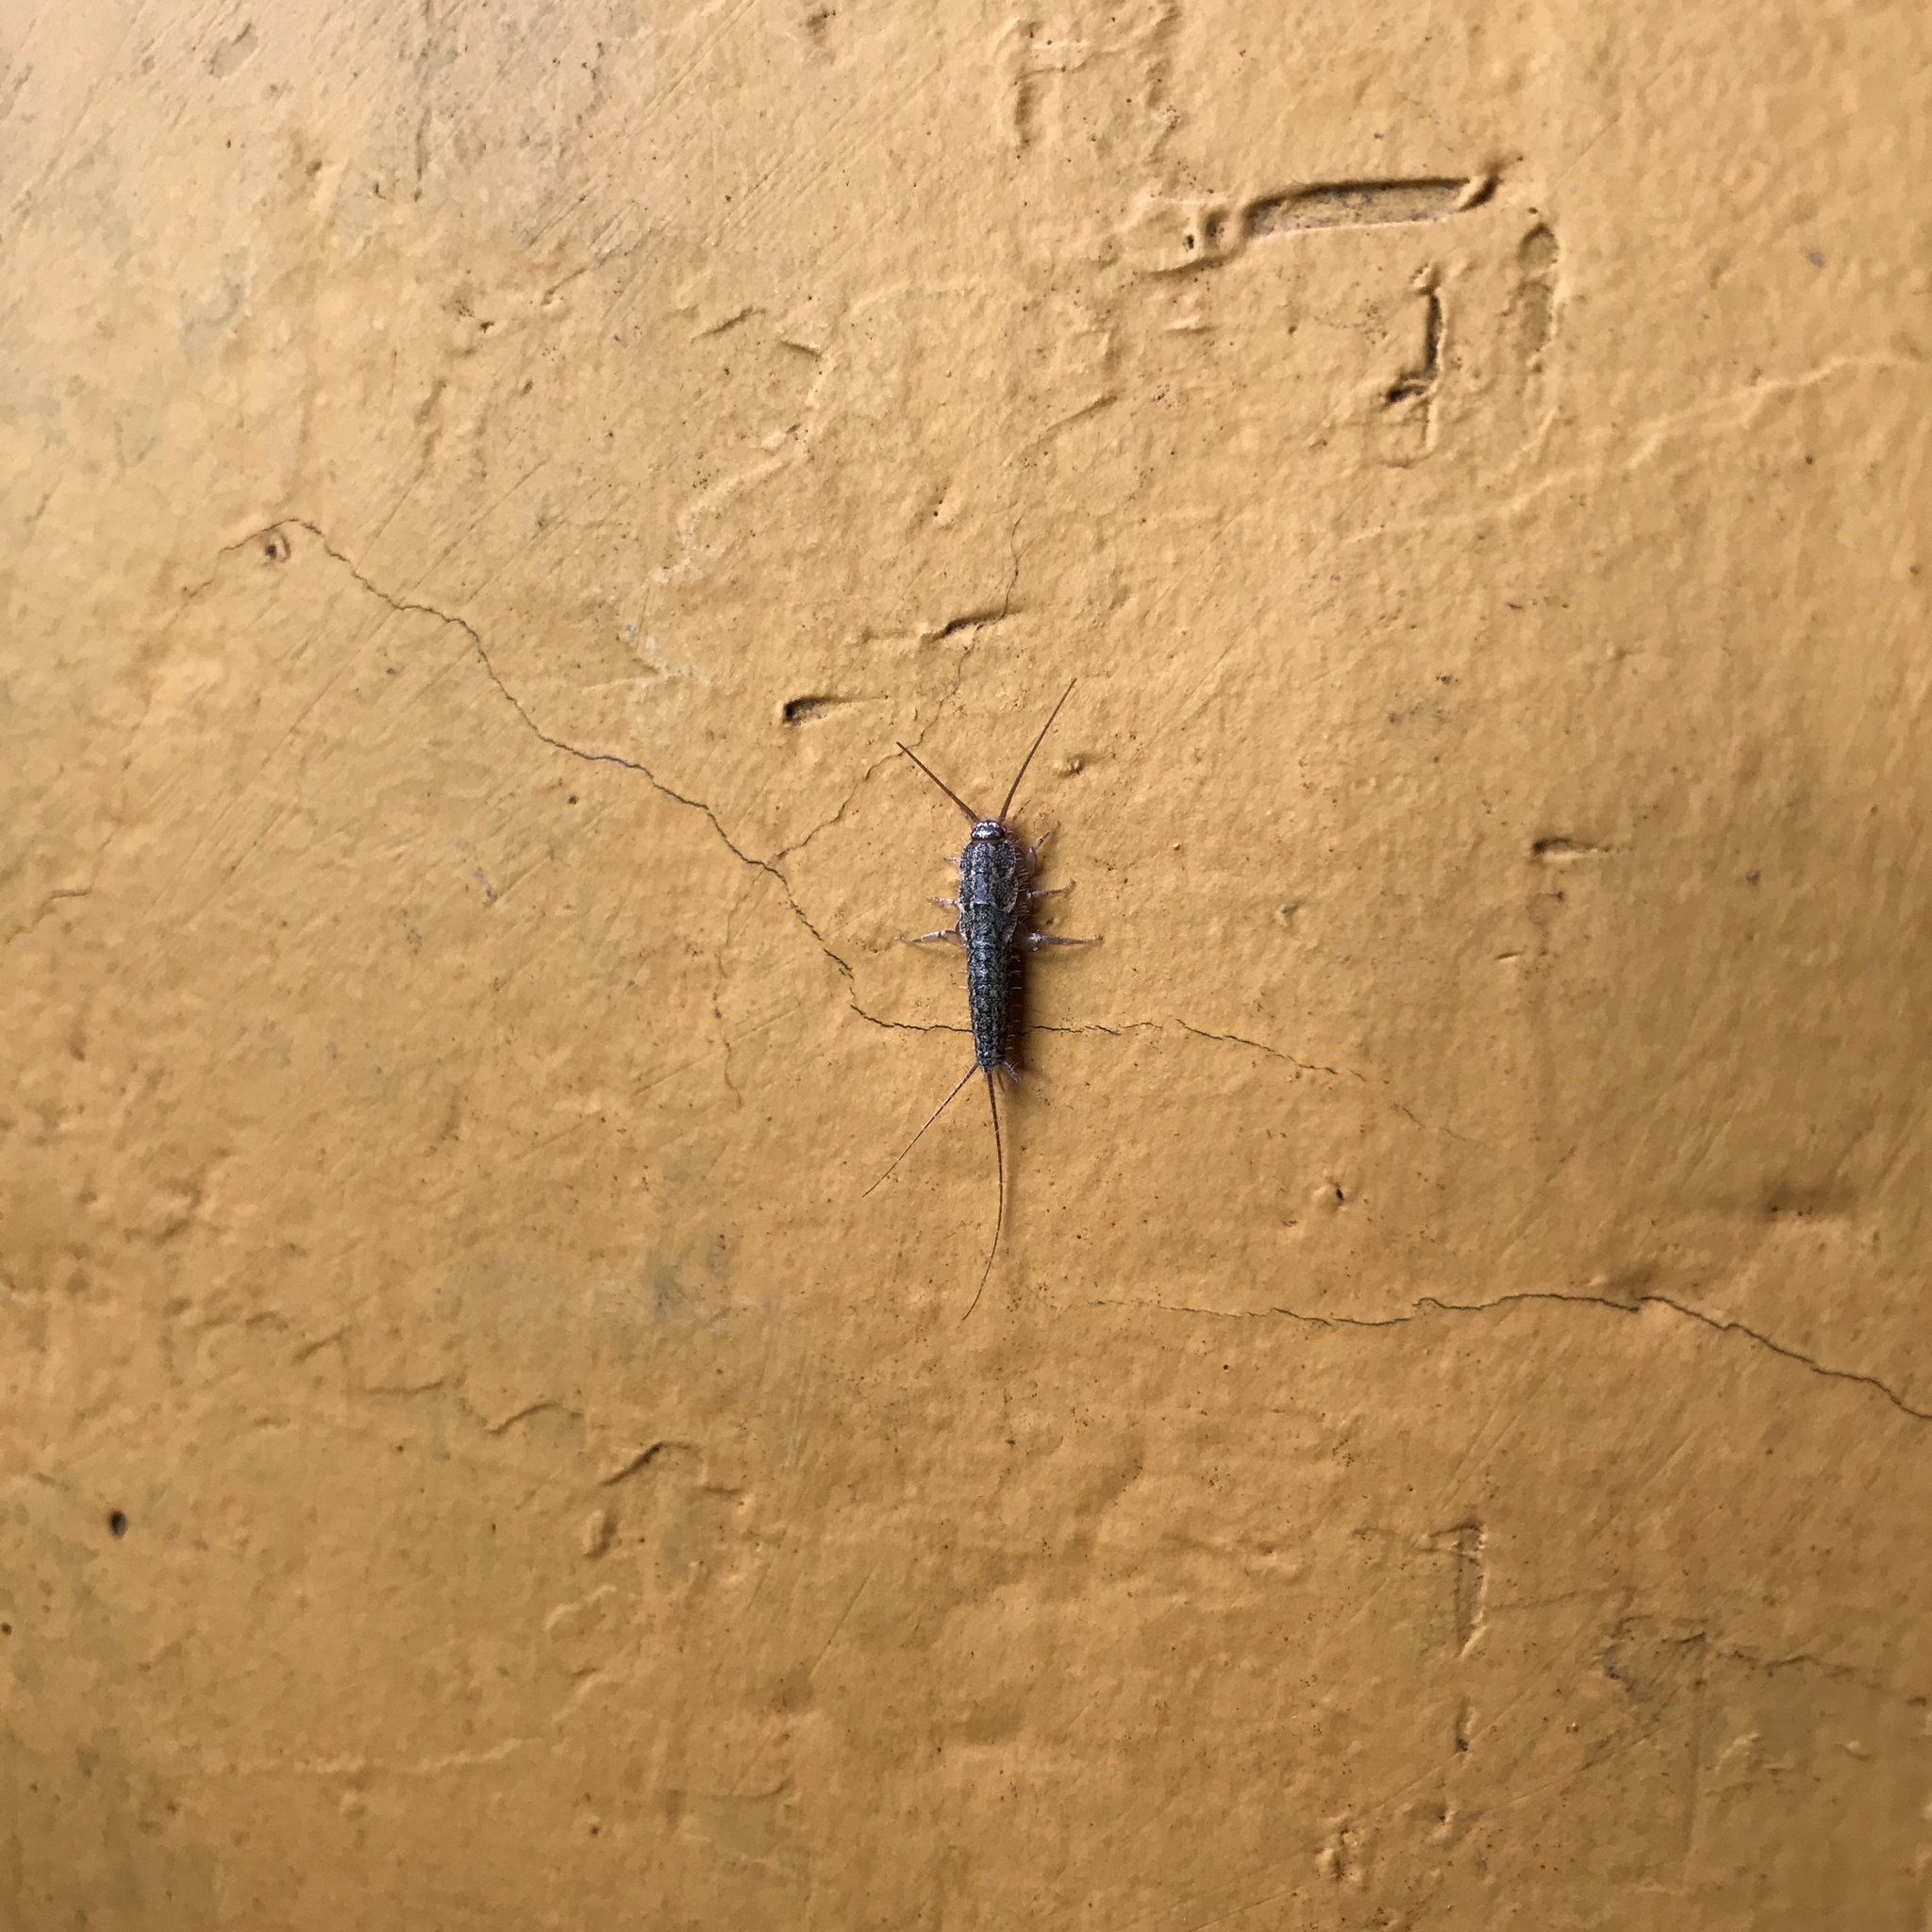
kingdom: Animalia
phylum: Arthropoda
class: Insecta
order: Zygentoma
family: Lepismatidae
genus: Ctenolepisma
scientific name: Ctenolepisma lineata
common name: Four-lined silverfish
